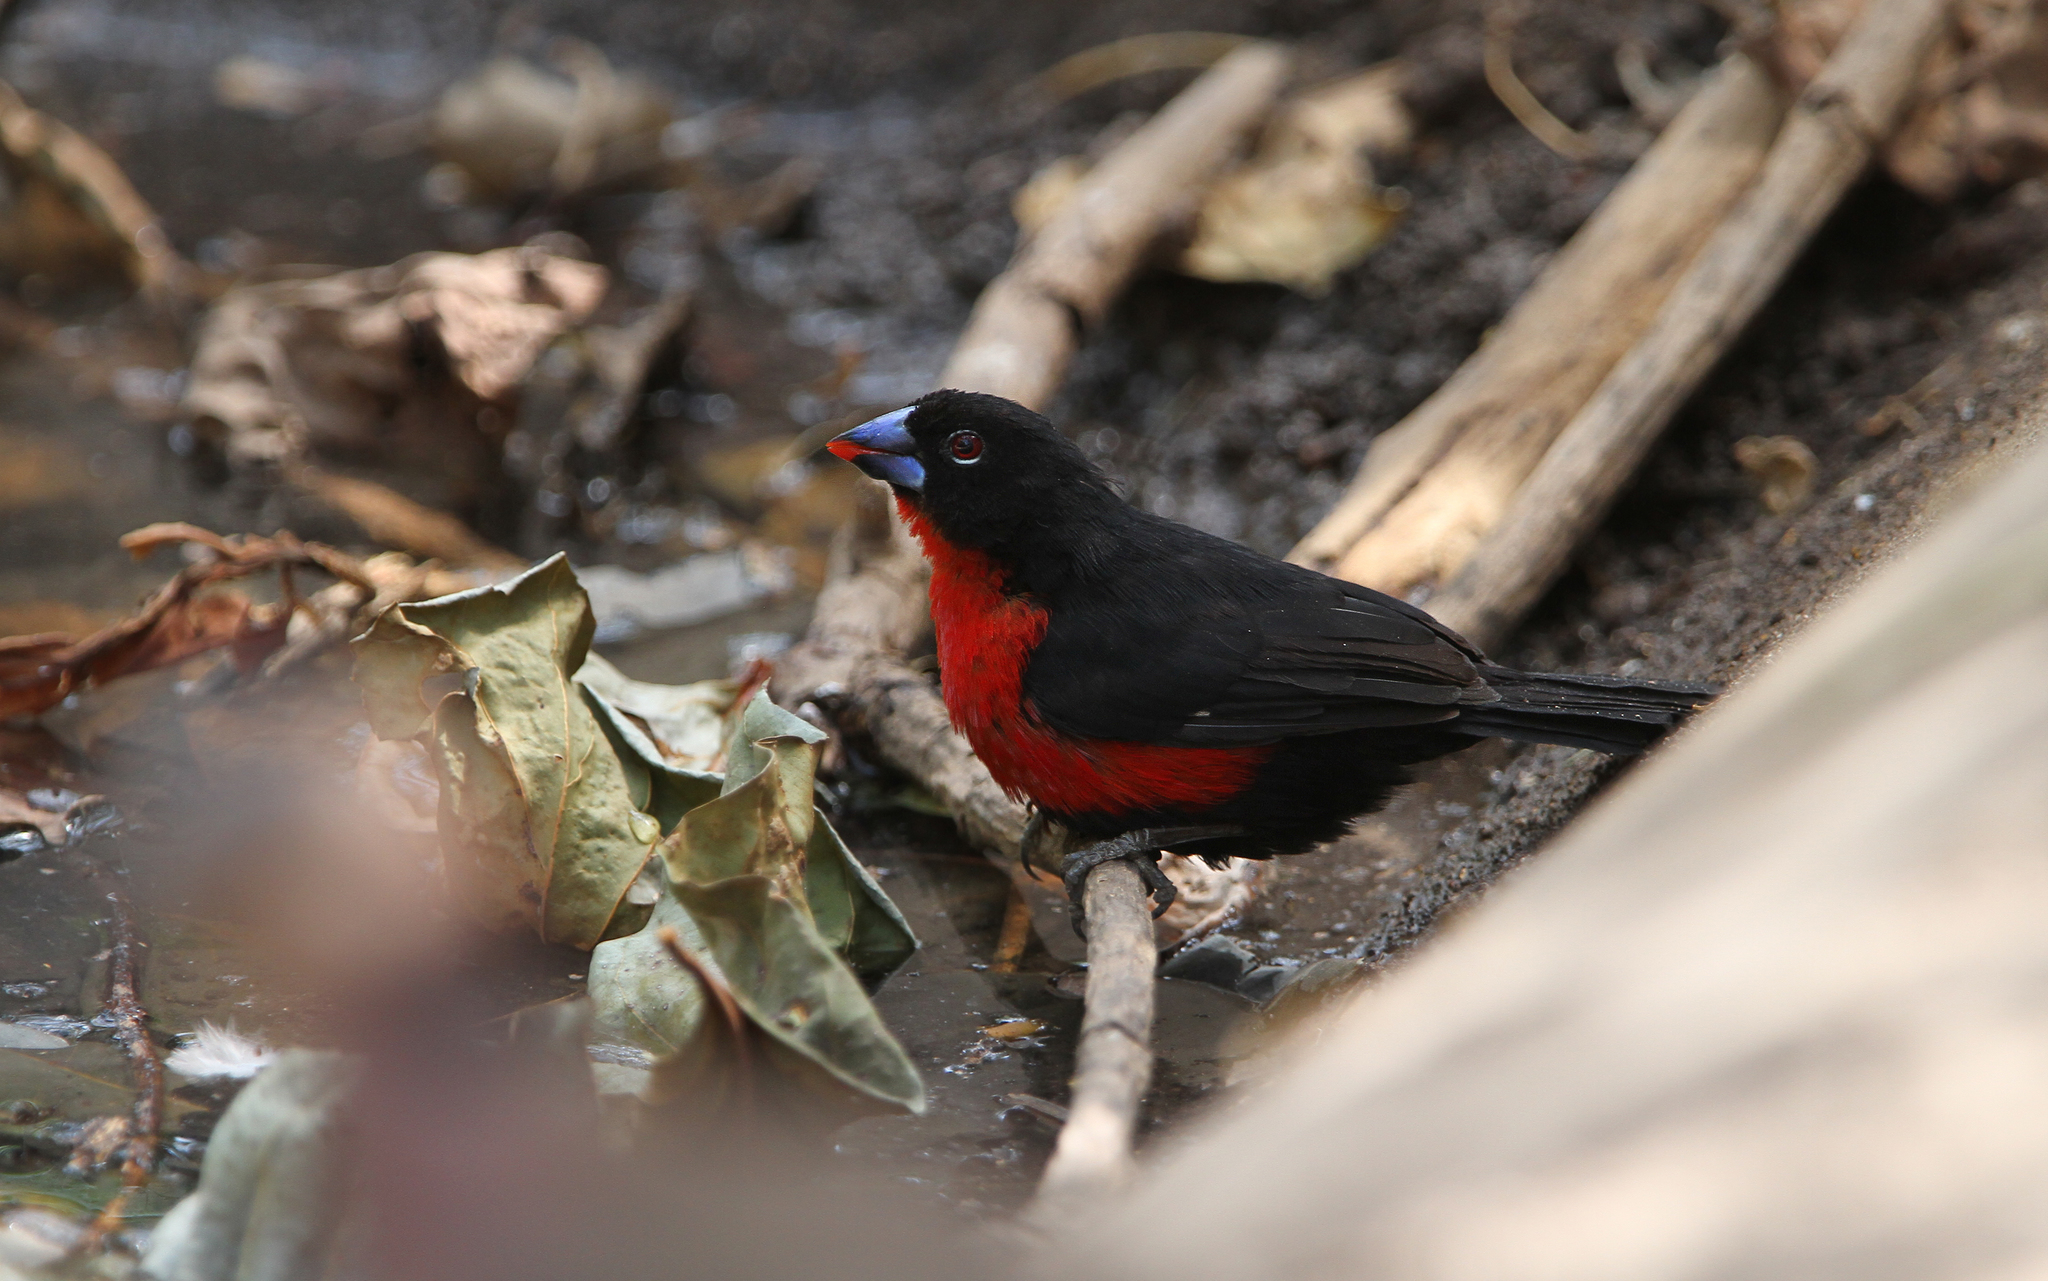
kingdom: Animalia
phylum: Chordata
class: Aves
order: Passeriformes
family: Estrildidae
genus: Spermophaga
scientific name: Spermophaga haematina
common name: Western bluebill
